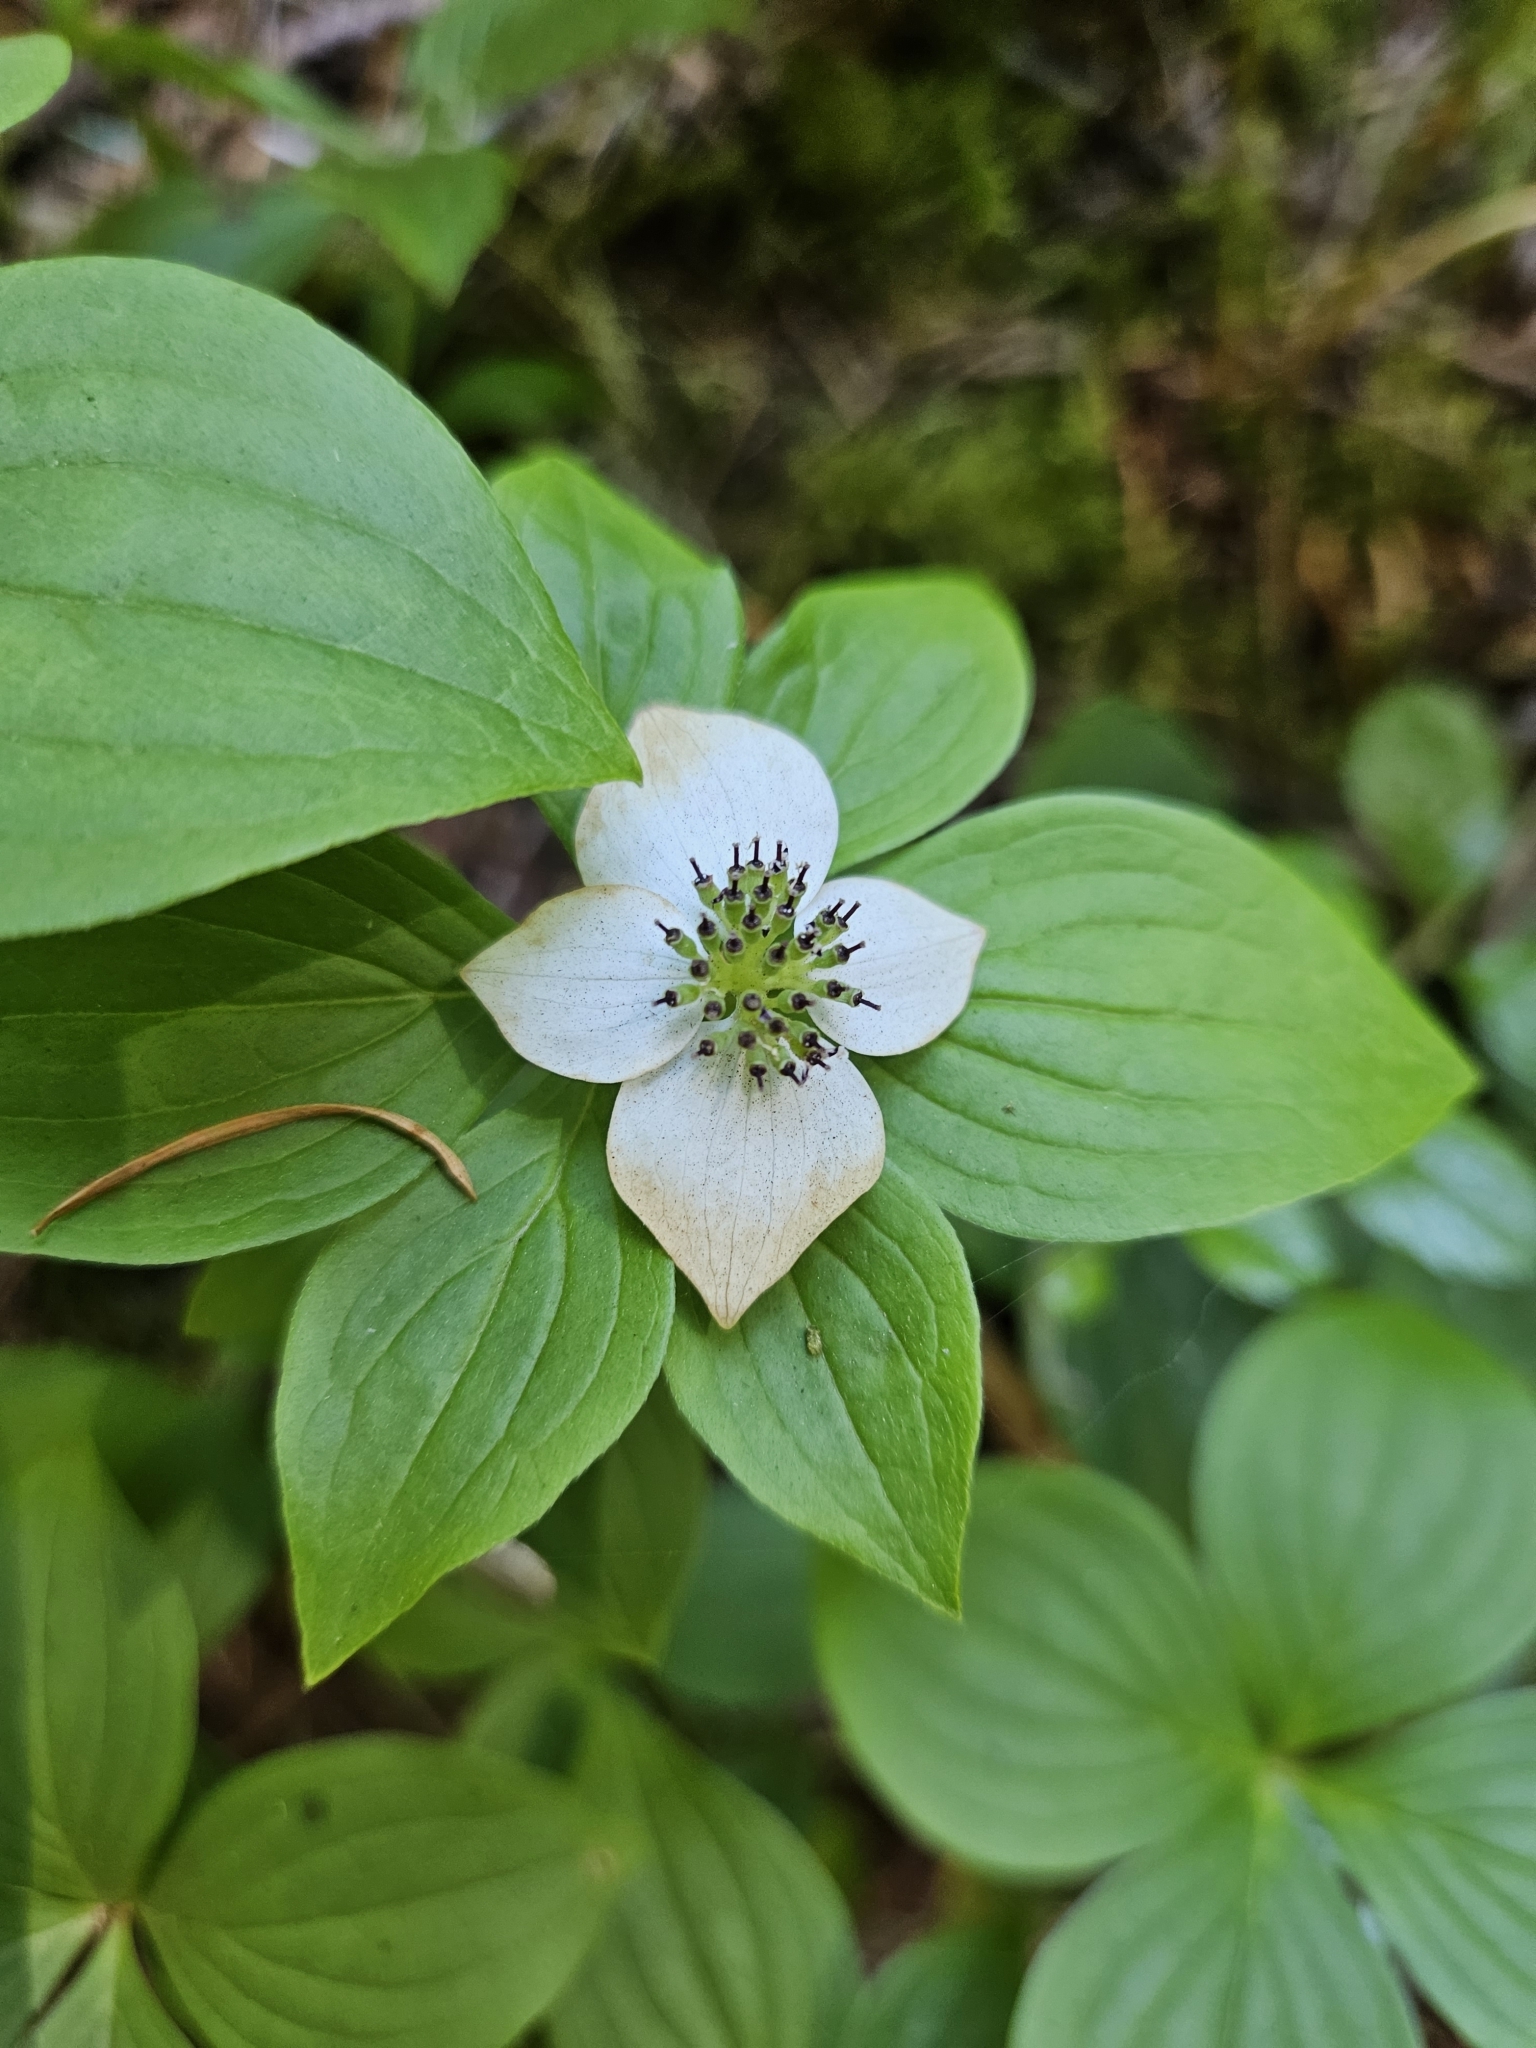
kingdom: Plantae
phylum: Tracheophyta
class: Magnoliopsida
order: Cornales
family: Cornaceae
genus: Cornus
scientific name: Cornus unalaschkensis
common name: Alaska bunchberry
